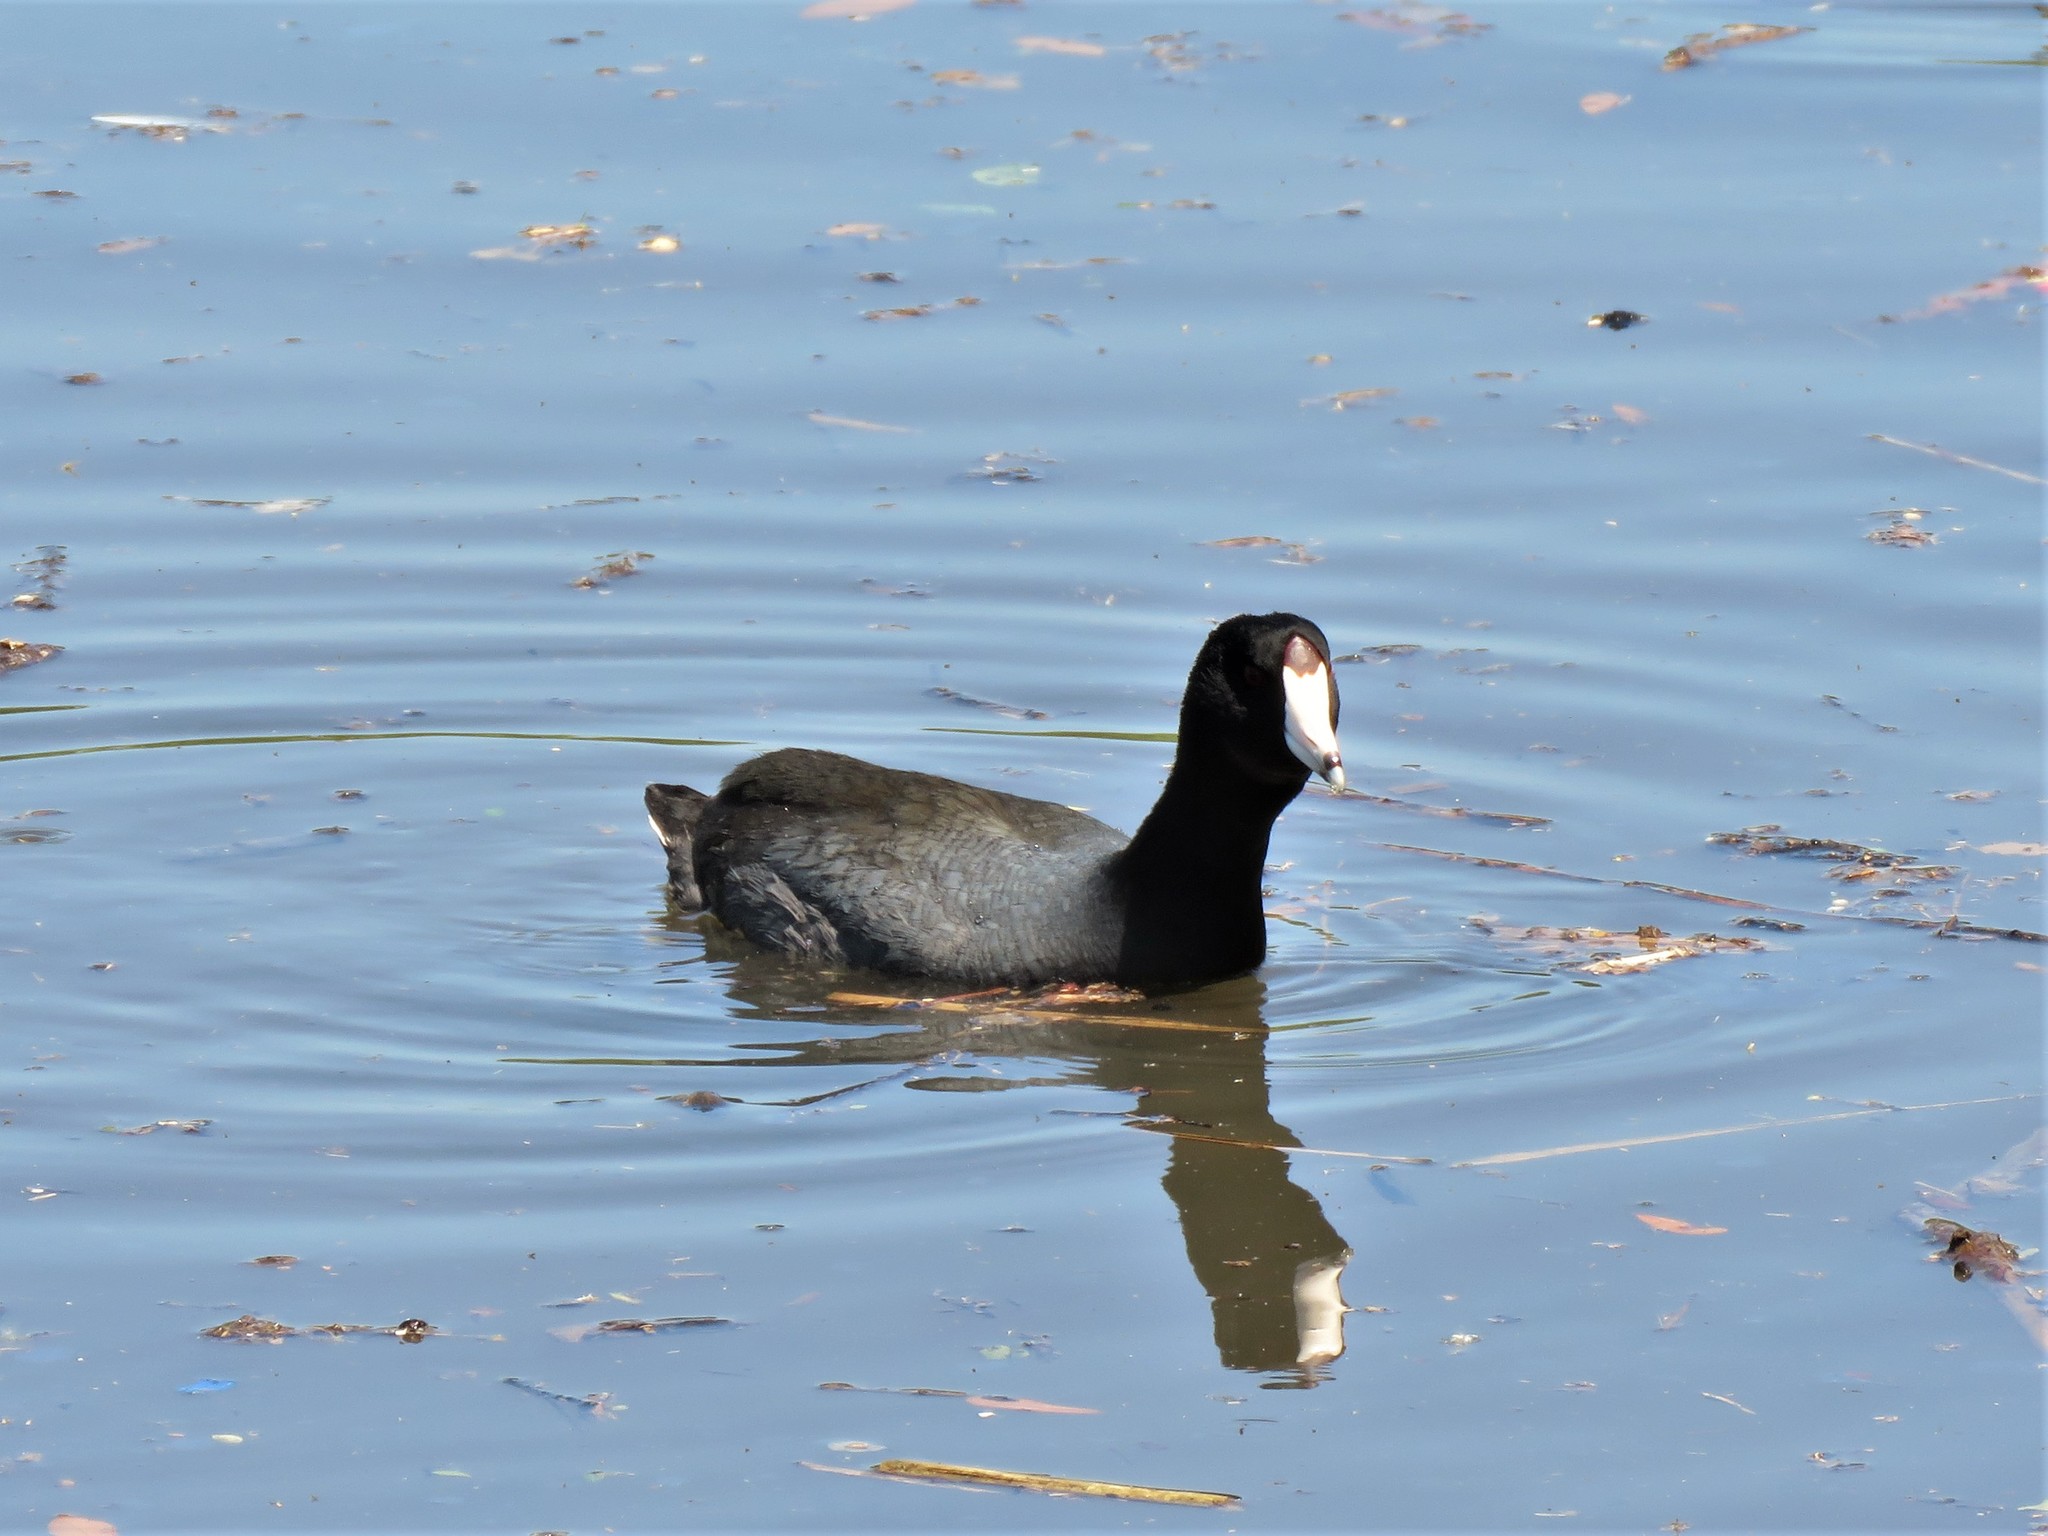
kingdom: Animalia
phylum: Chordata
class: Aves
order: Gruiformes
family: Rallidae
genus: Fulica
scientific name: Fulica americana
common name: American coot
